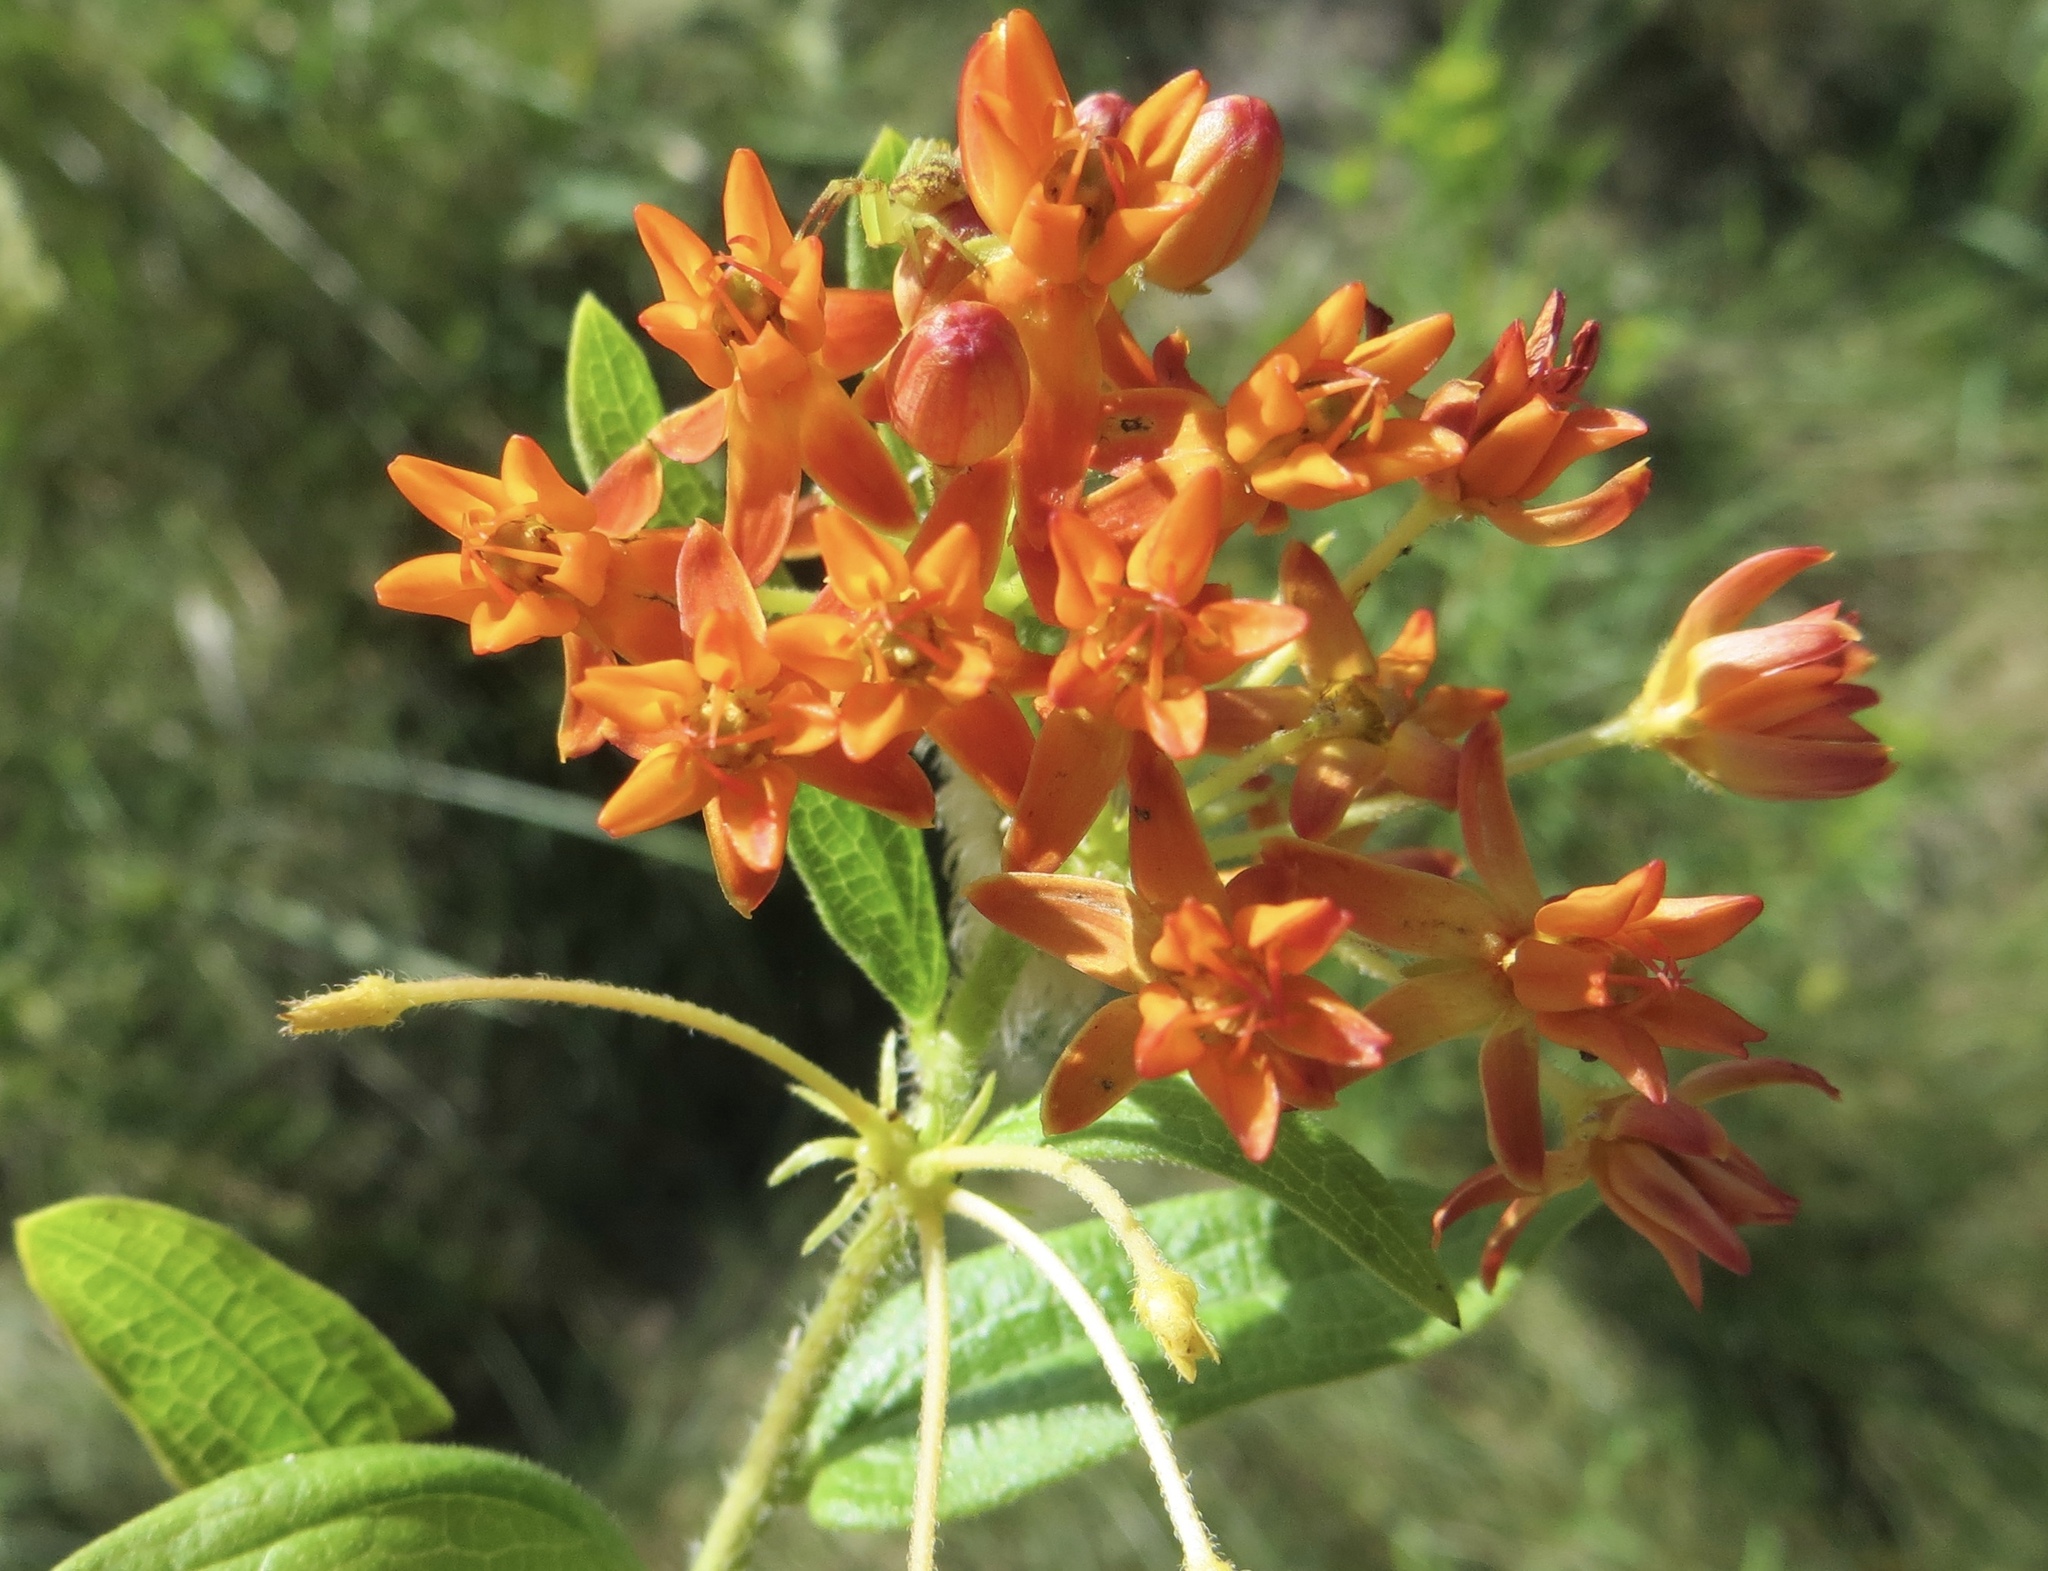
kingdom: Plantae
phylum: Tracheophyta
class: Magnoliopsida
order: Gentianales
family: Apocynaceae
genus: Asclepias
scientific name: Asclepias tuberosa
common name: Butterfly milkweed
